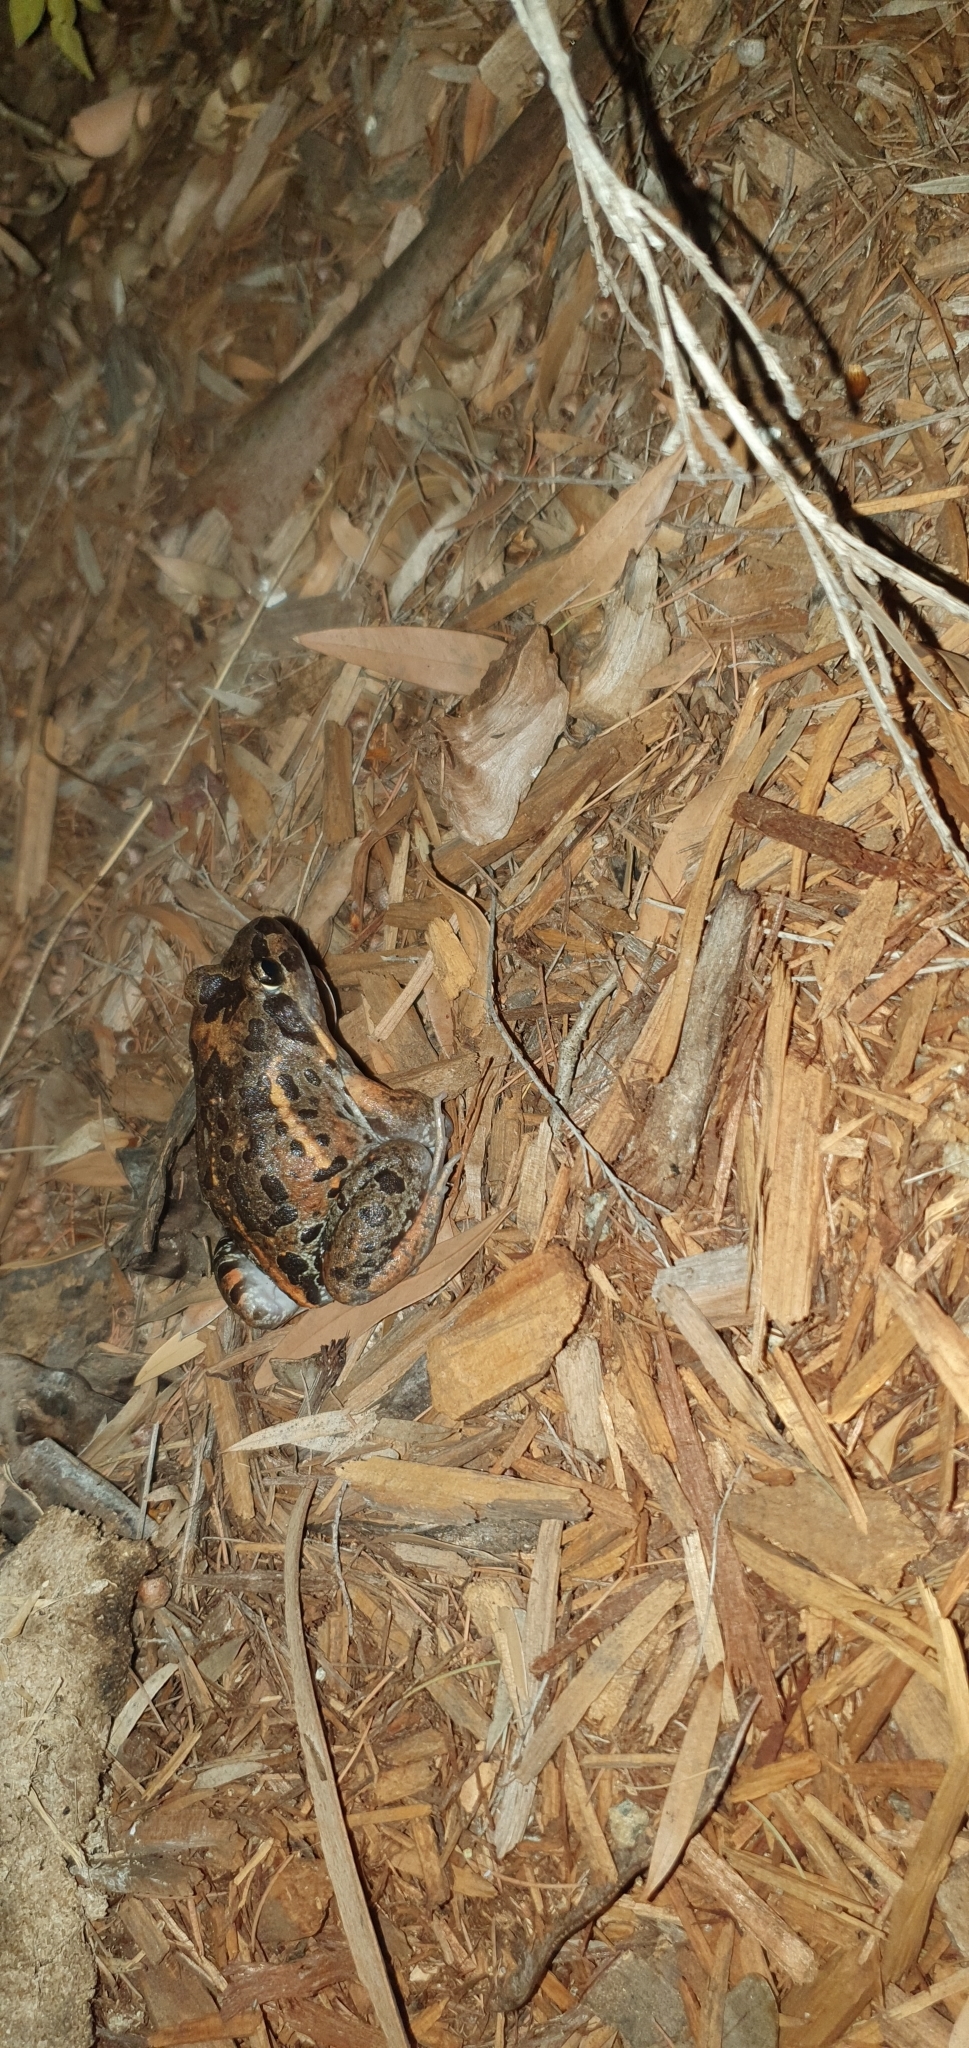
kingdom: Animalia
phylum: Chordata
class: Amphibia
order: Anura
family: Limnodynastidae
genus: Limnodynastes
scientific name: Limnodynastes salmini
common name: Salmon-striped frog
